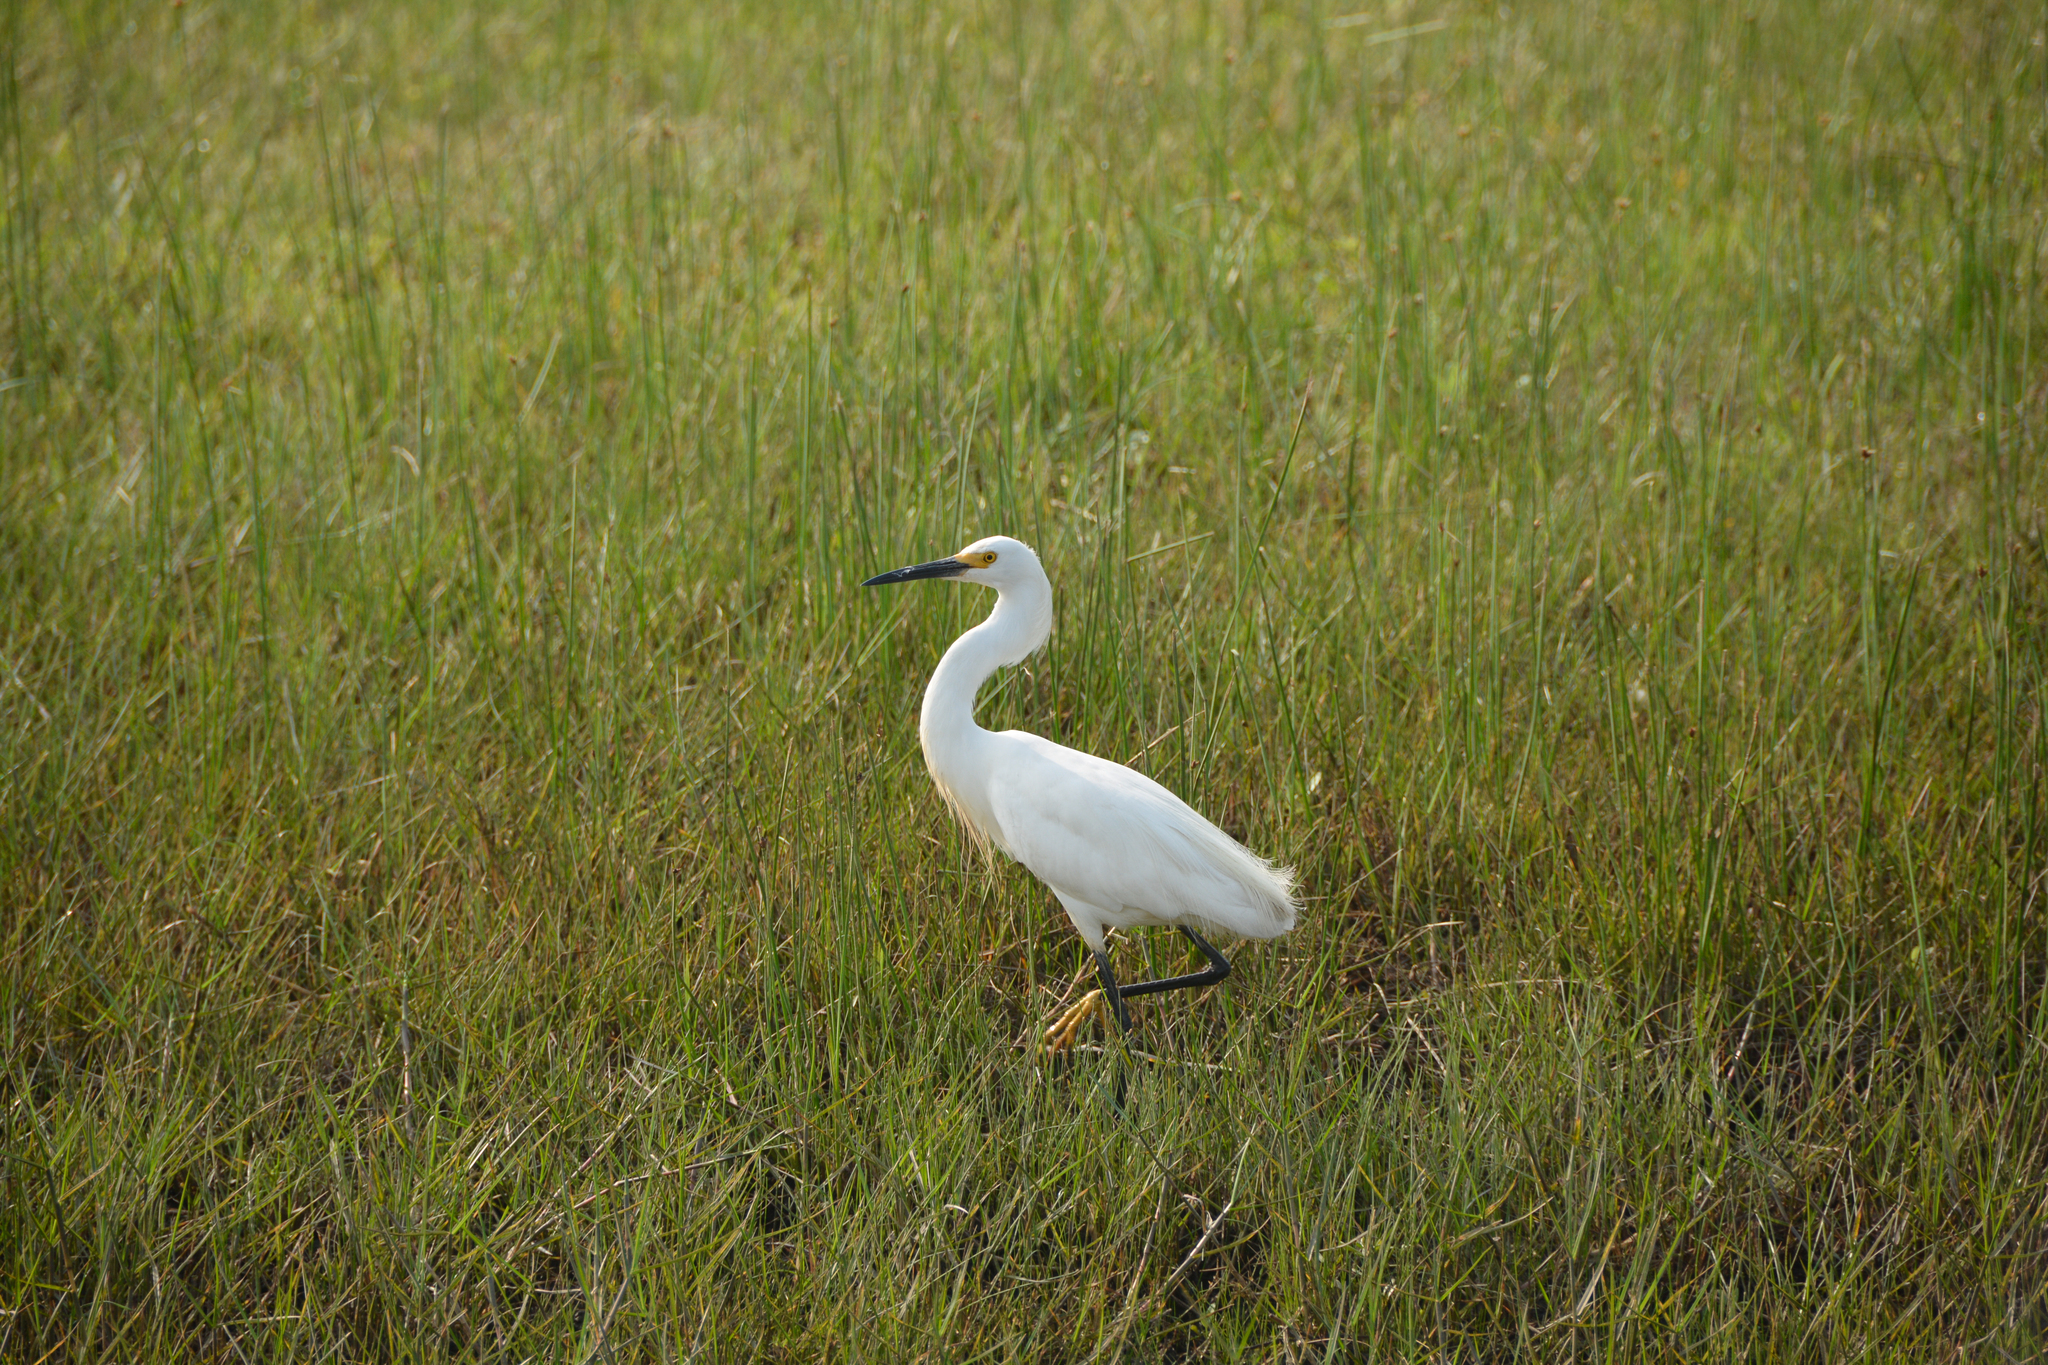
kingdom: Animalia
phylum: Chordata
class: Aves
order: Pelecaniformes
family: Ardeidae
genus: Egretta
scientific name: Egretta thula
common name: Snowy egret
